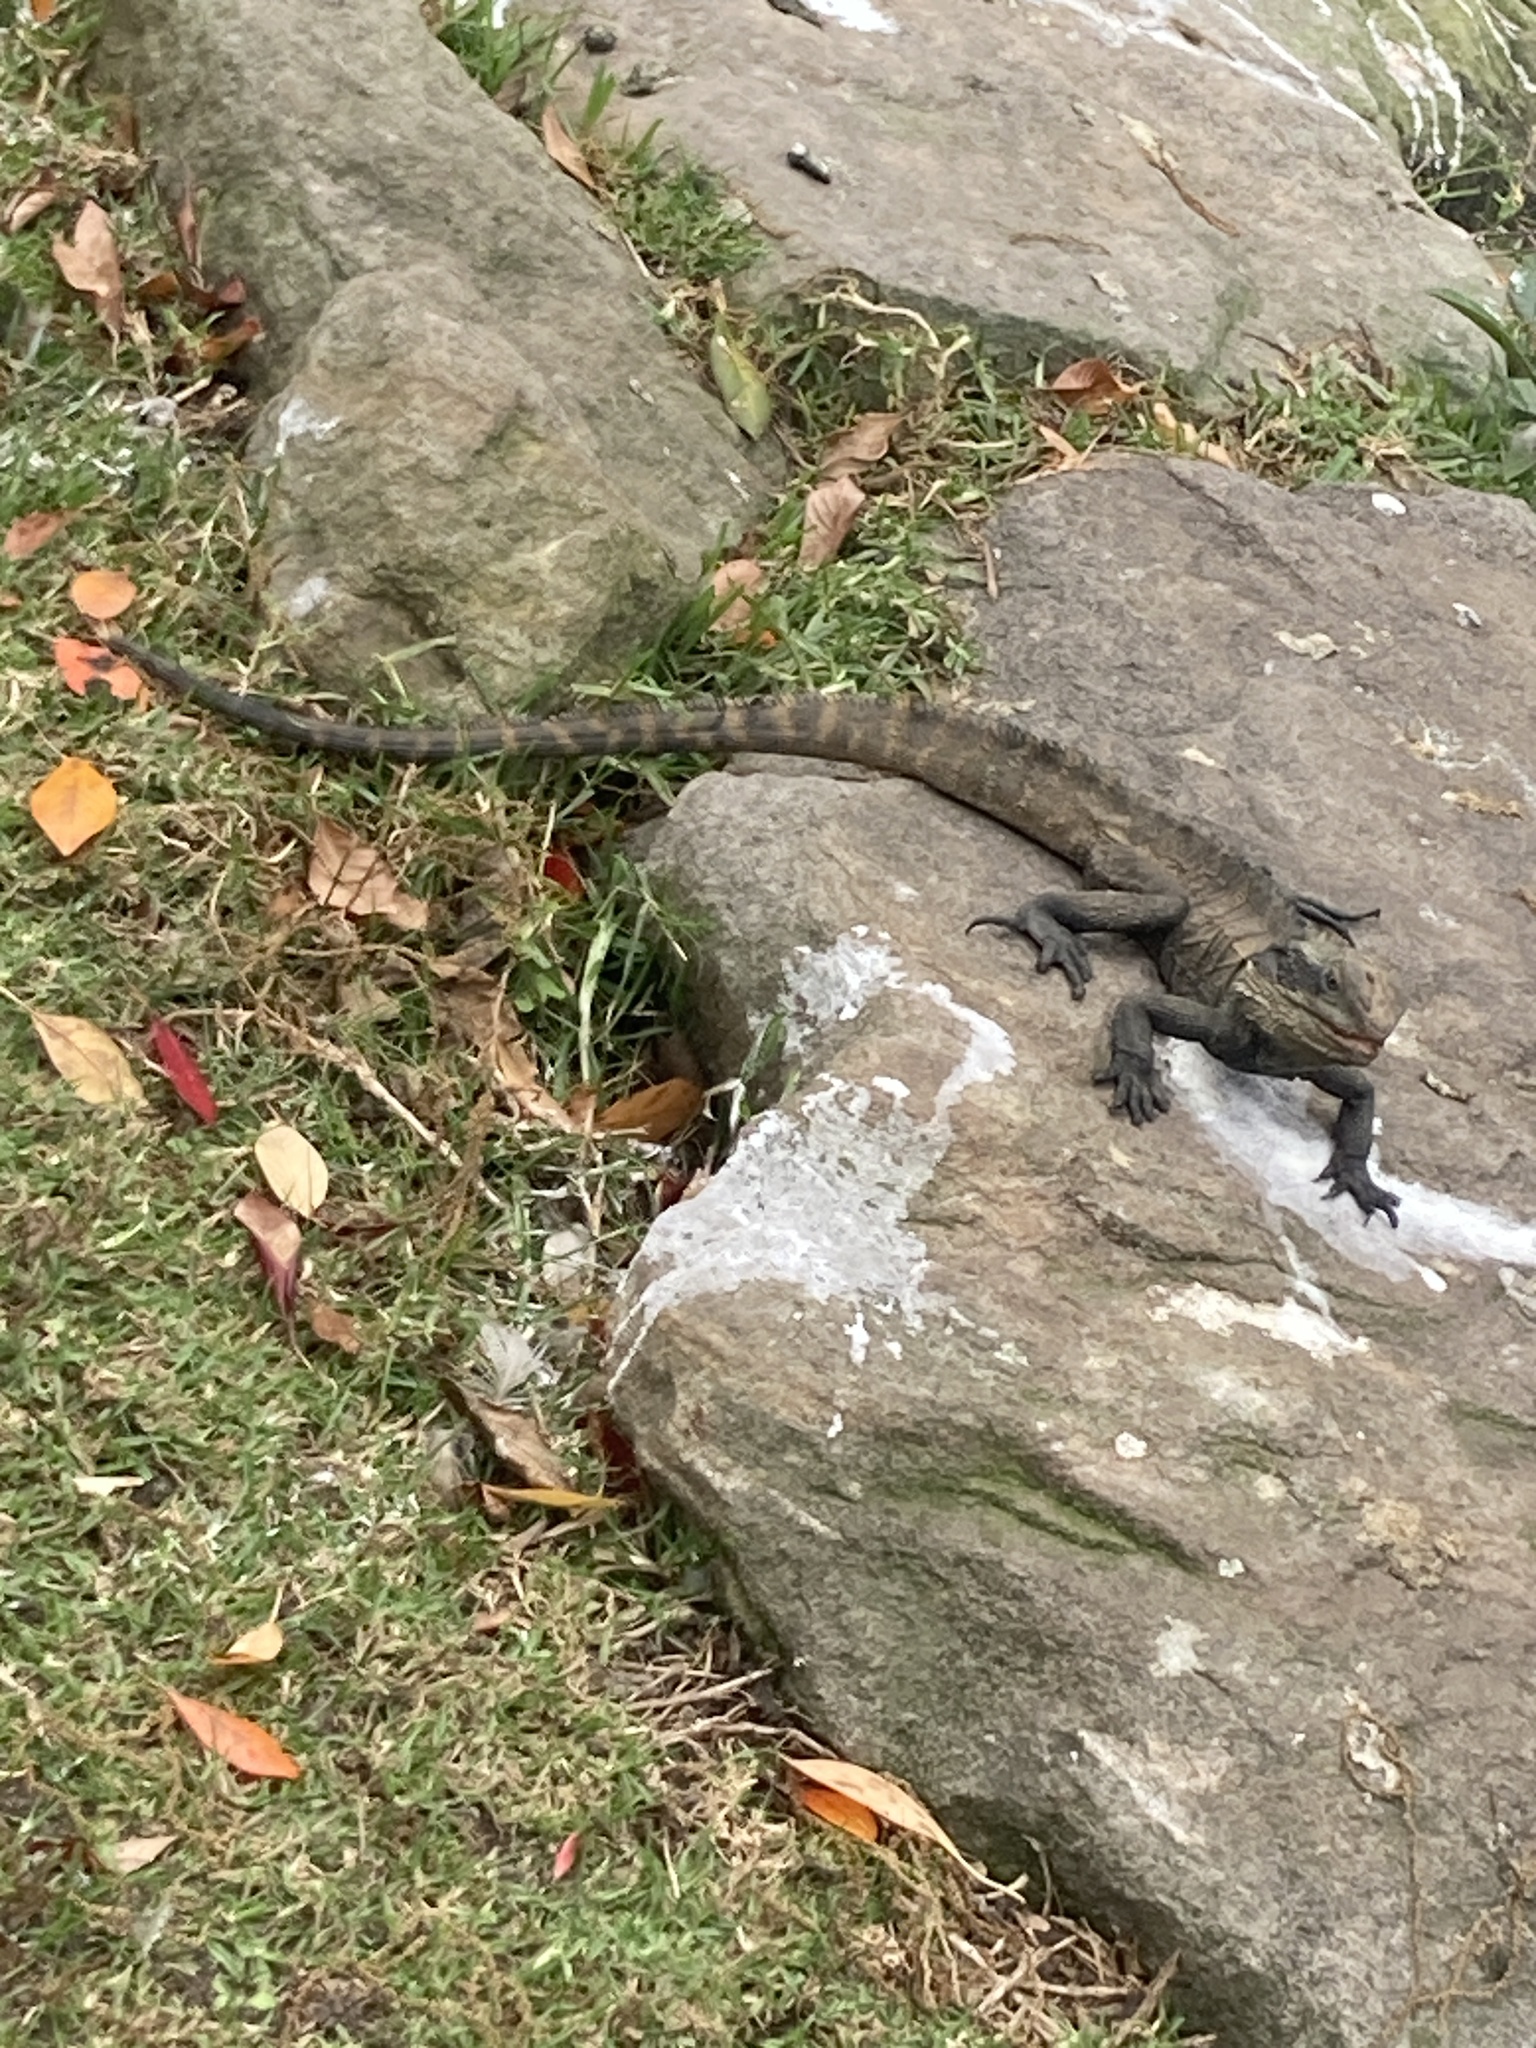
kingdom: Animalia
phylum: Chordata
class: Squamata
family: Agamidae
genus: Intellagama
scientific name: Intellagama lesueurii
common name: Eastern water dragon
